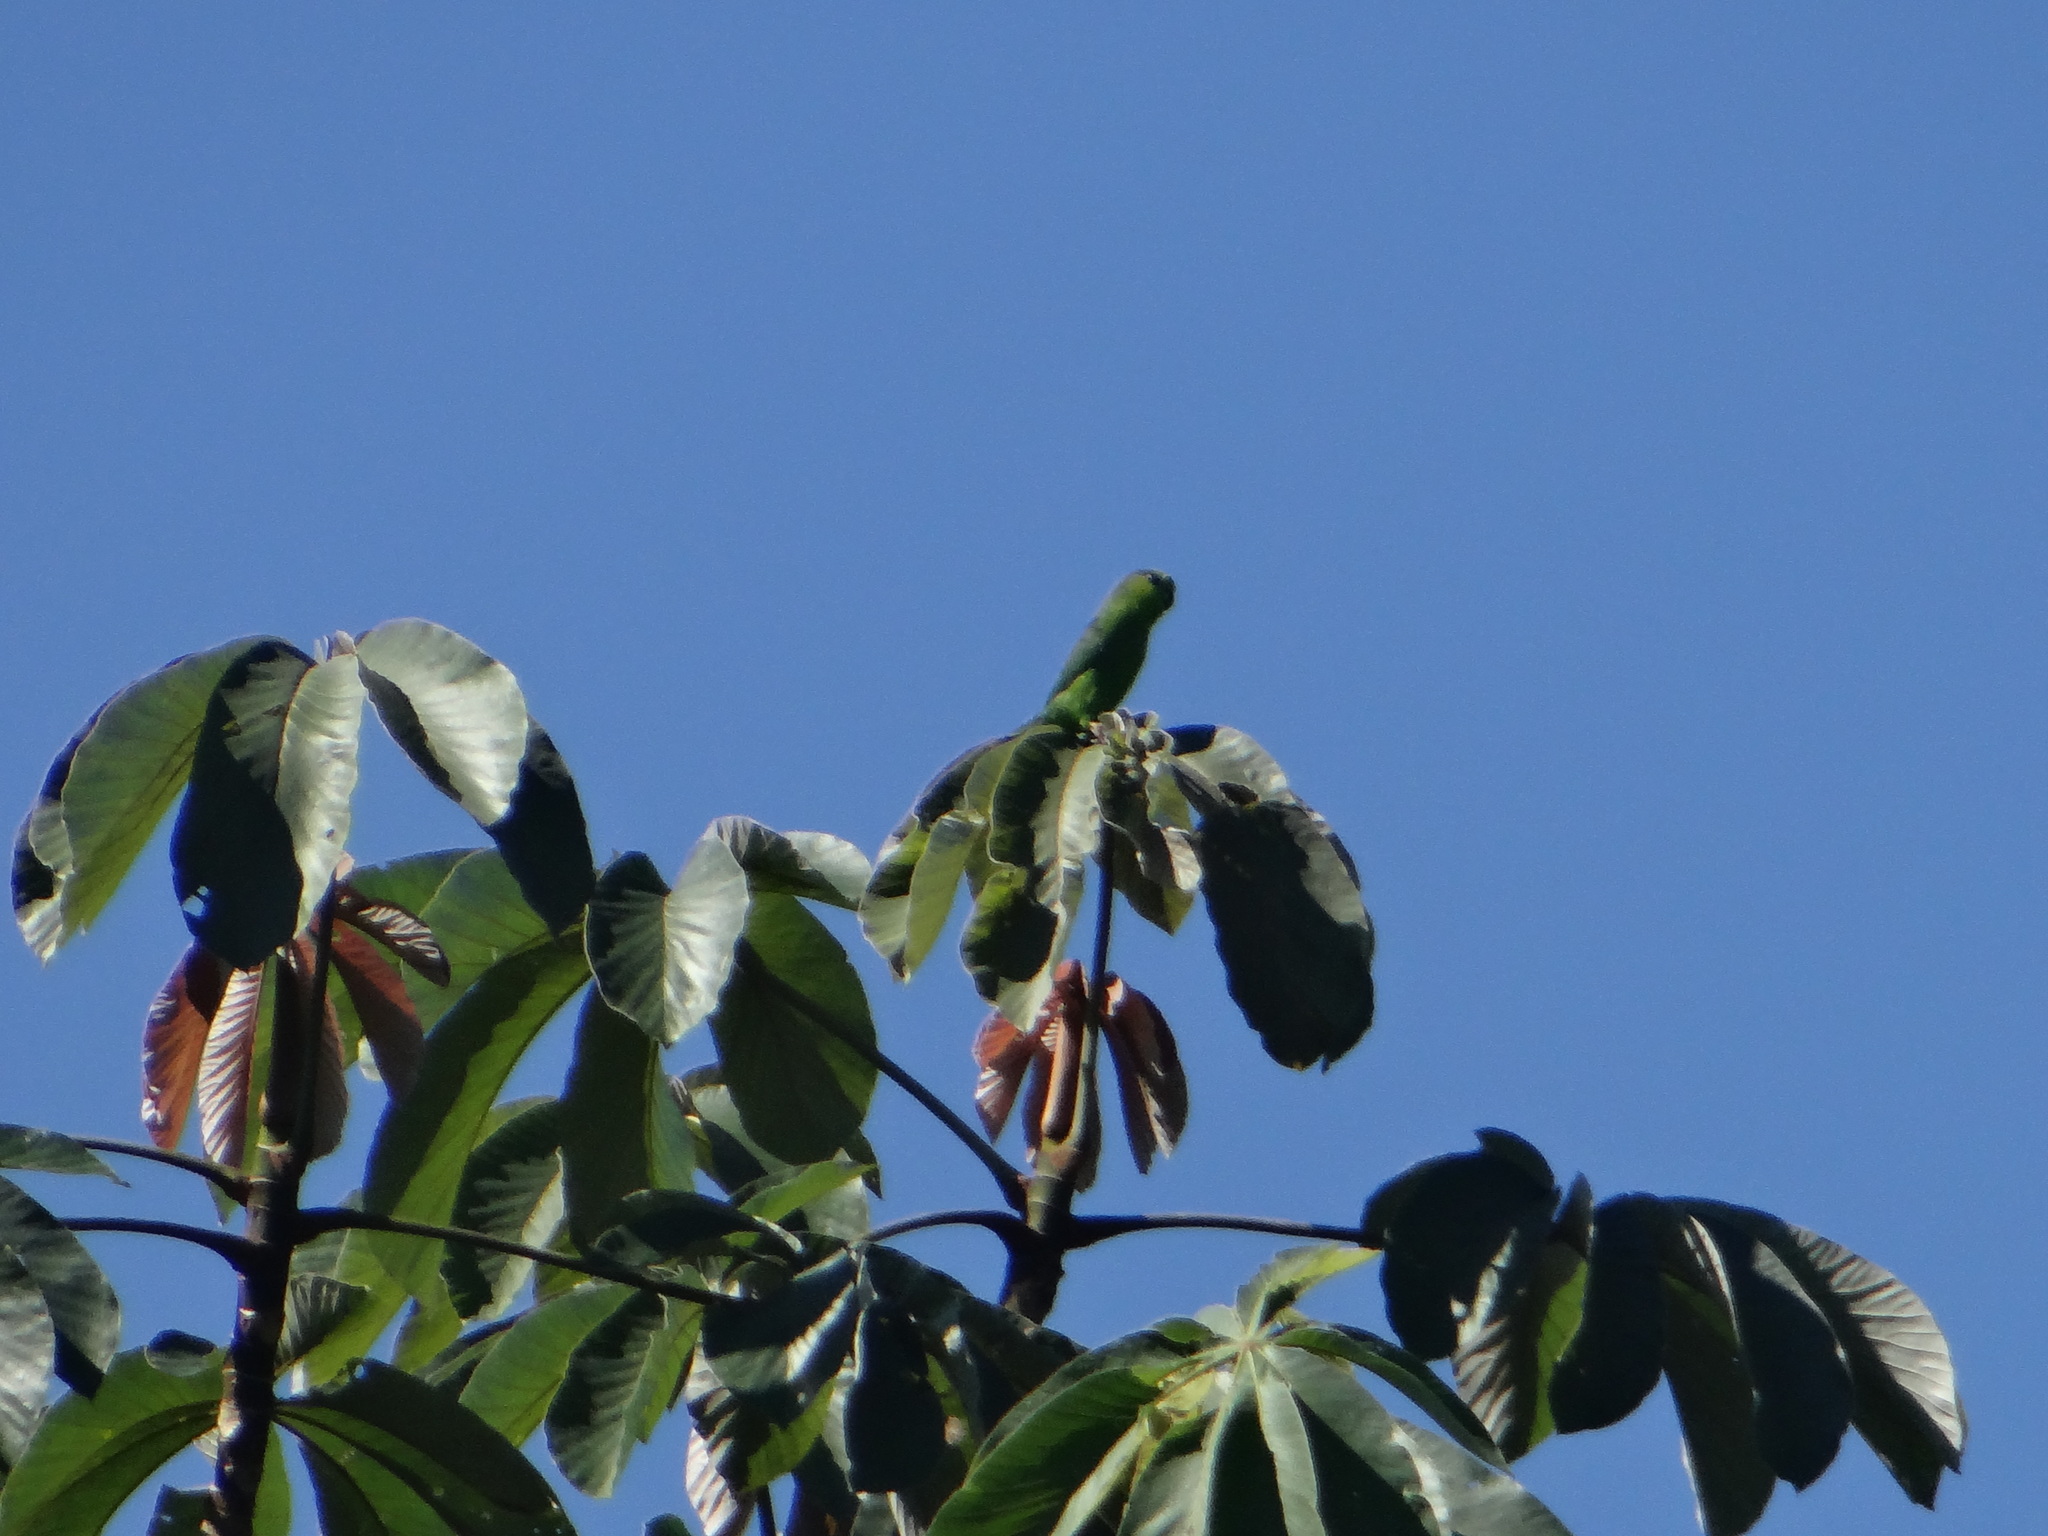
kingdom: Animalia
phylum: Chordata
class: Aves
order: Psittaciformes
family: Psittacidae
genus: Forpus
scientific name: Forpus modestus
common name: Dusky-billed parrotlet
